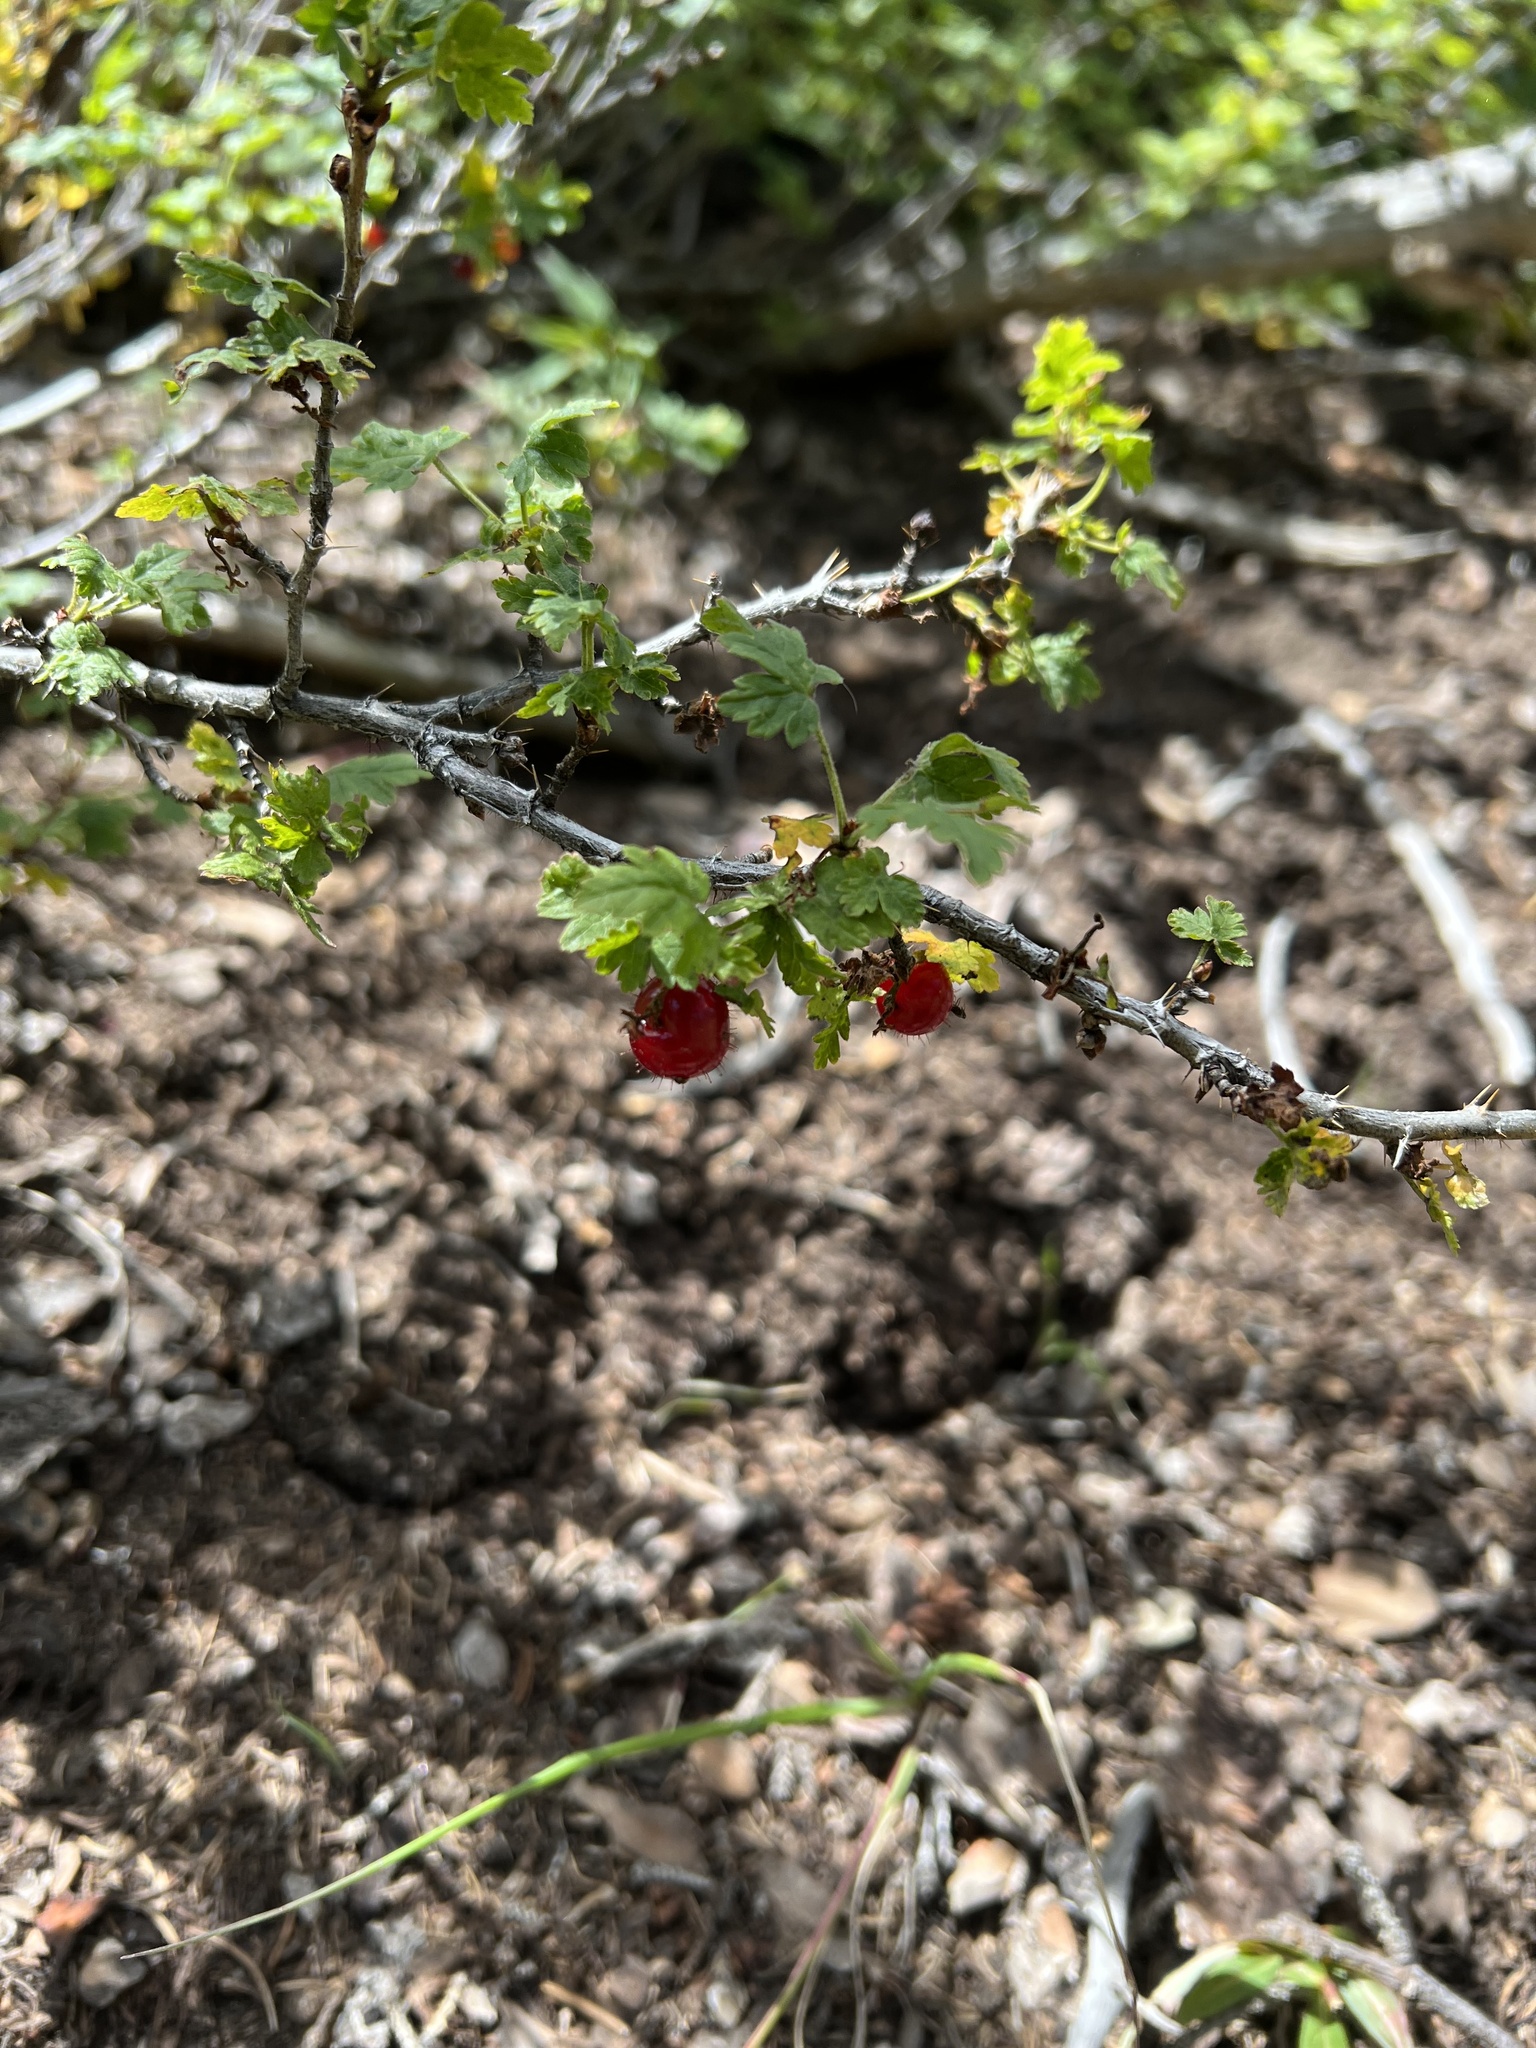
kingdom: Plantae
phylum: Tracheophyta
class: Magnoliopsida
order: Saxifragales
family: Grossulariaceae
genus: Ribes
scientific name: Ribes montigenum
